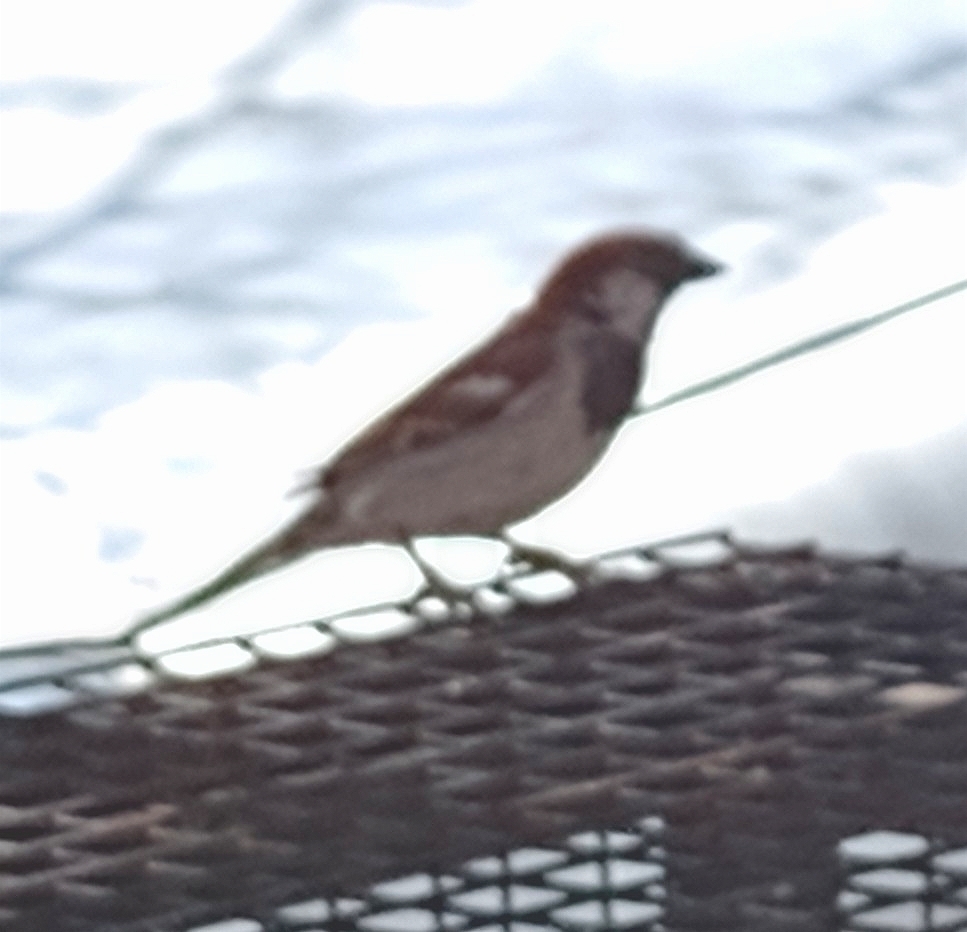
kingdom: Animalia
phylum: Chordata
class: Aves
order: Passeriformes
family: Passeridae
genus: Passer
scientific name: Passer domesticus
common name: House sparrow
